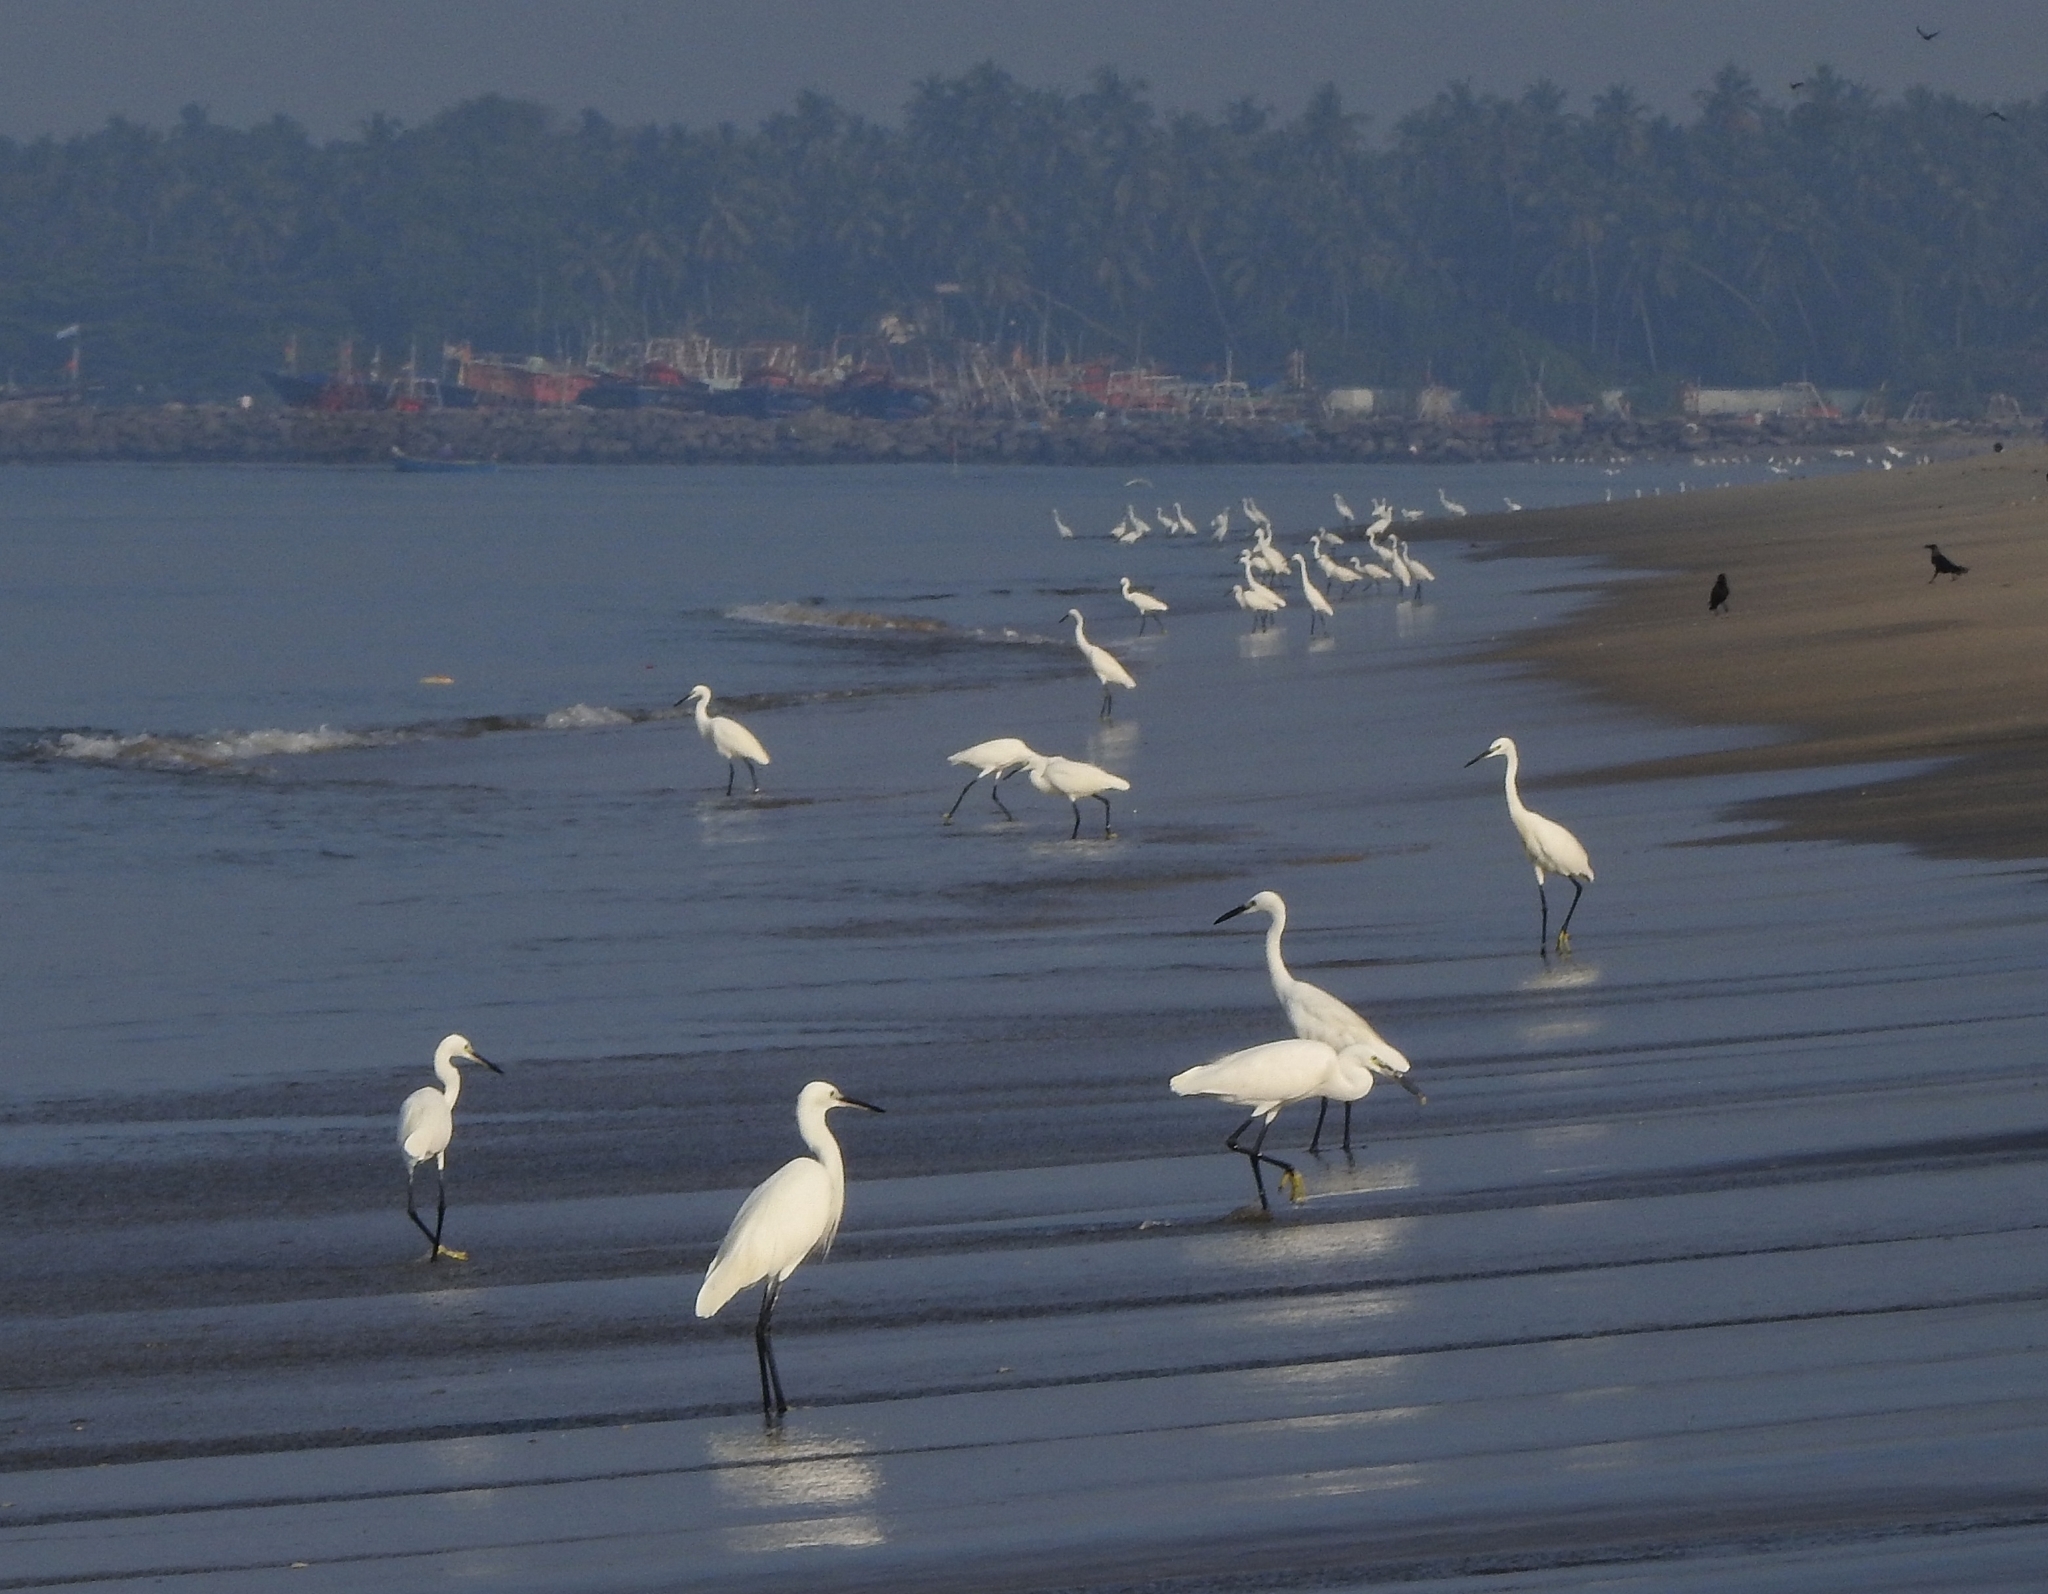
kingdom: Animalia
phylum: Chordata
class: Aves
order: Pelecaniformes
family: Ardeidae
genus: Egretta
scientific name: Egretta garzetta
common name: Little egret
